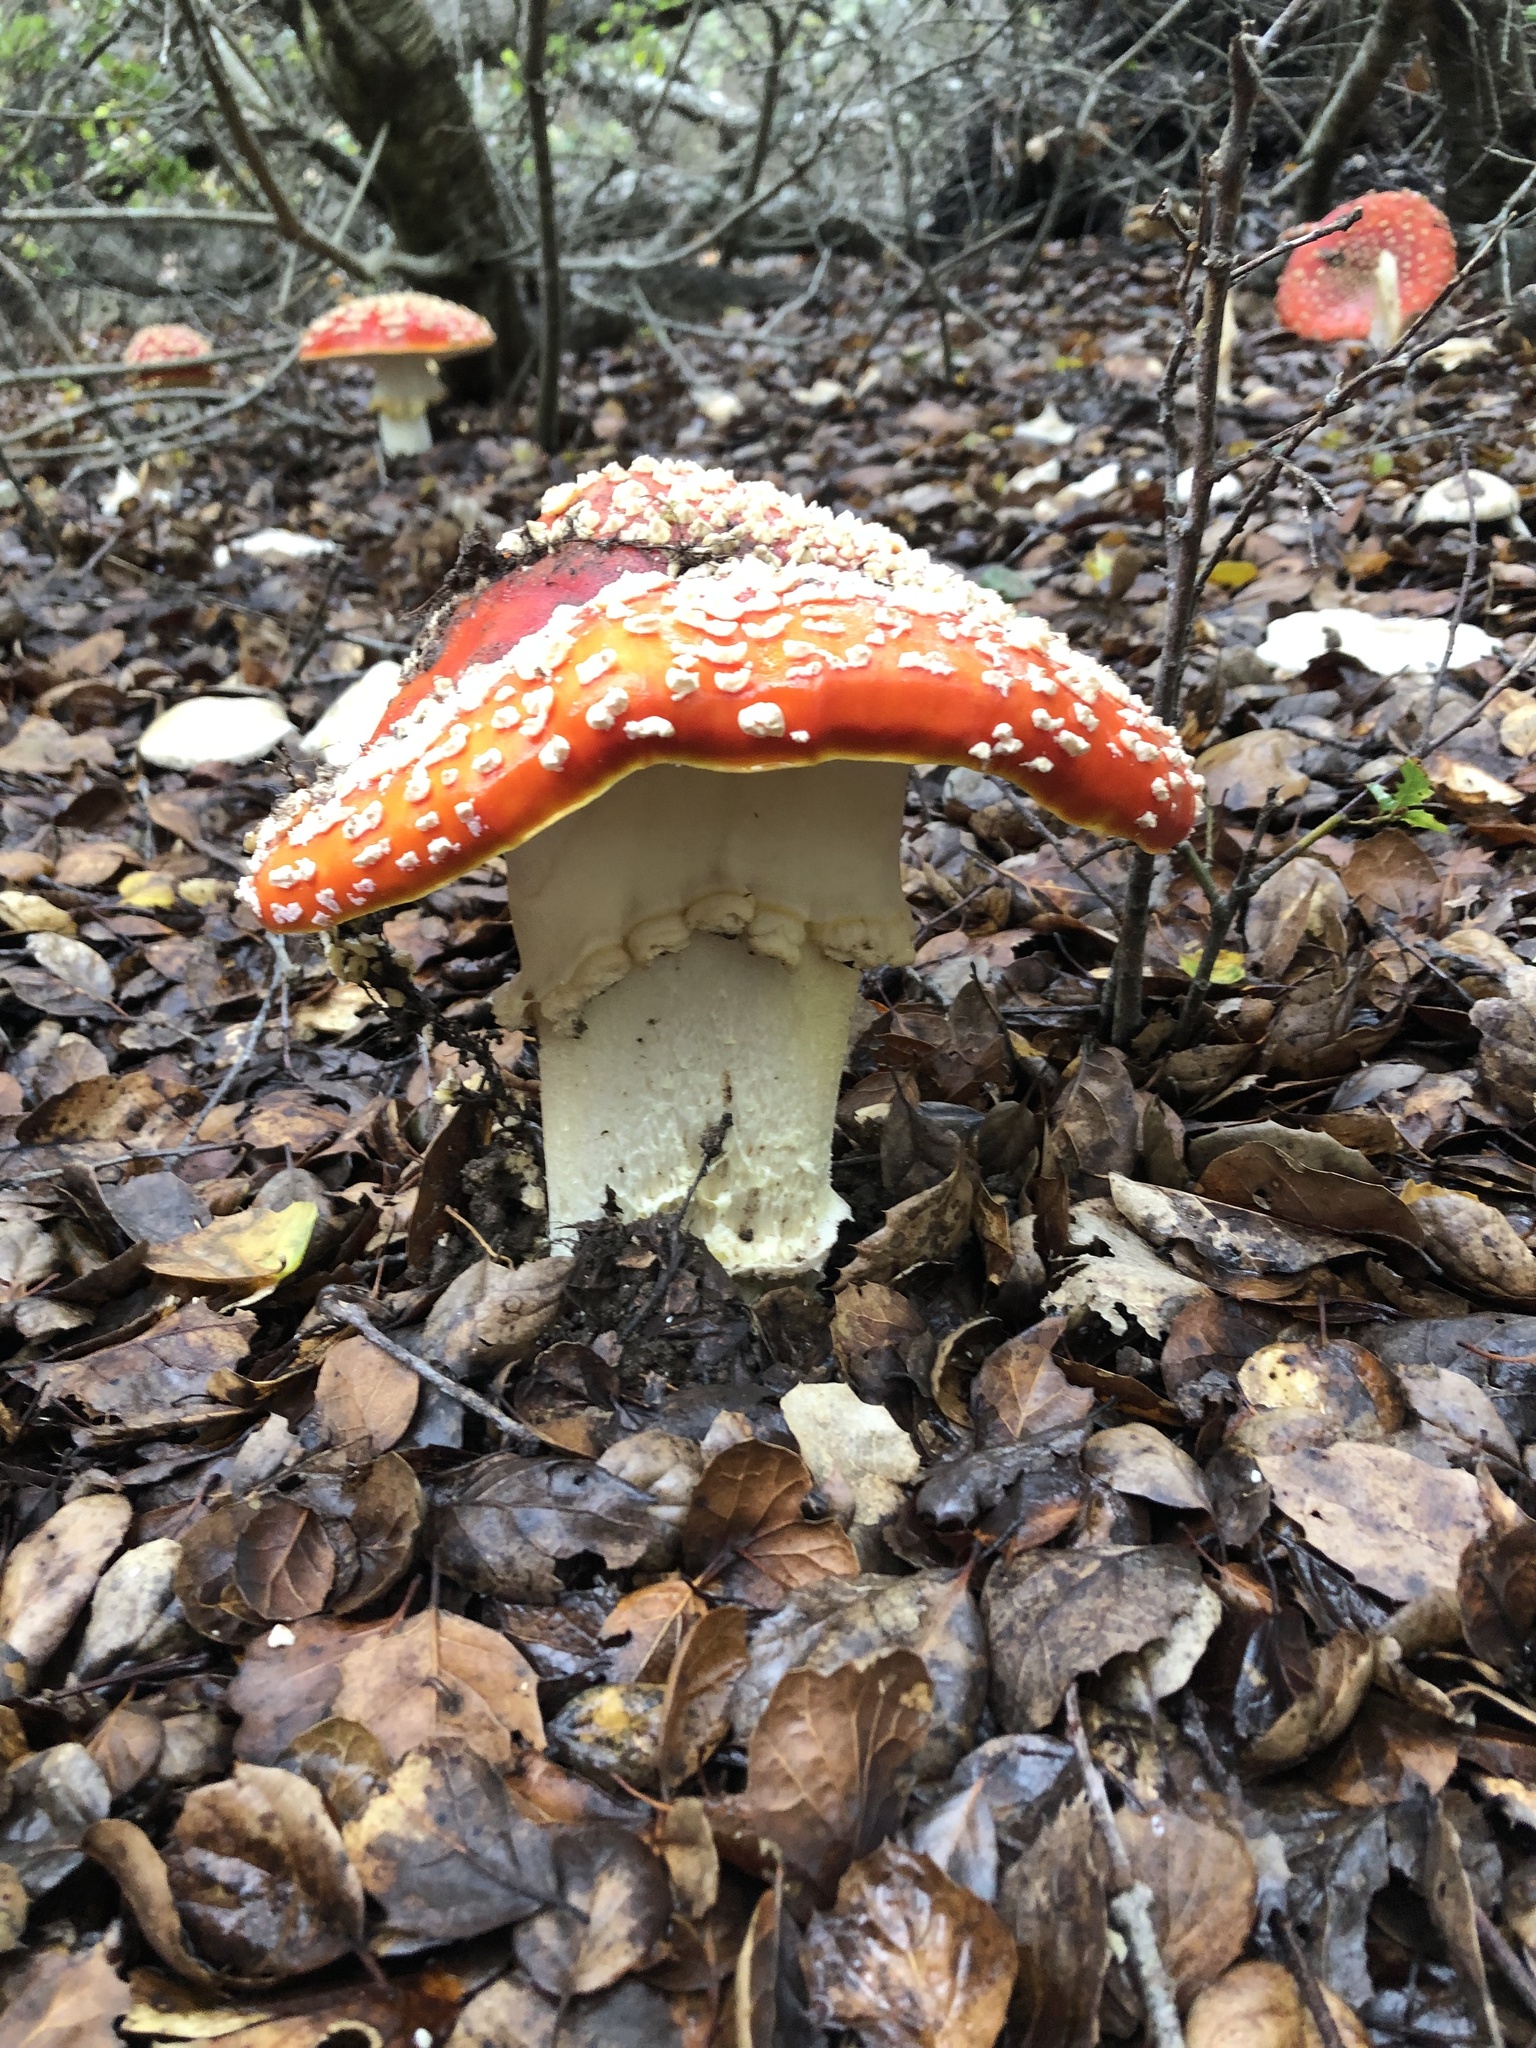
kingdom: Fungi
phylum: Basidiomycota
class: Agaricomycetes
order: Agaricales
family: Amanitaceae
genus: Amanita
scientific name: Amanita muscaria
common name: Fly agaric
